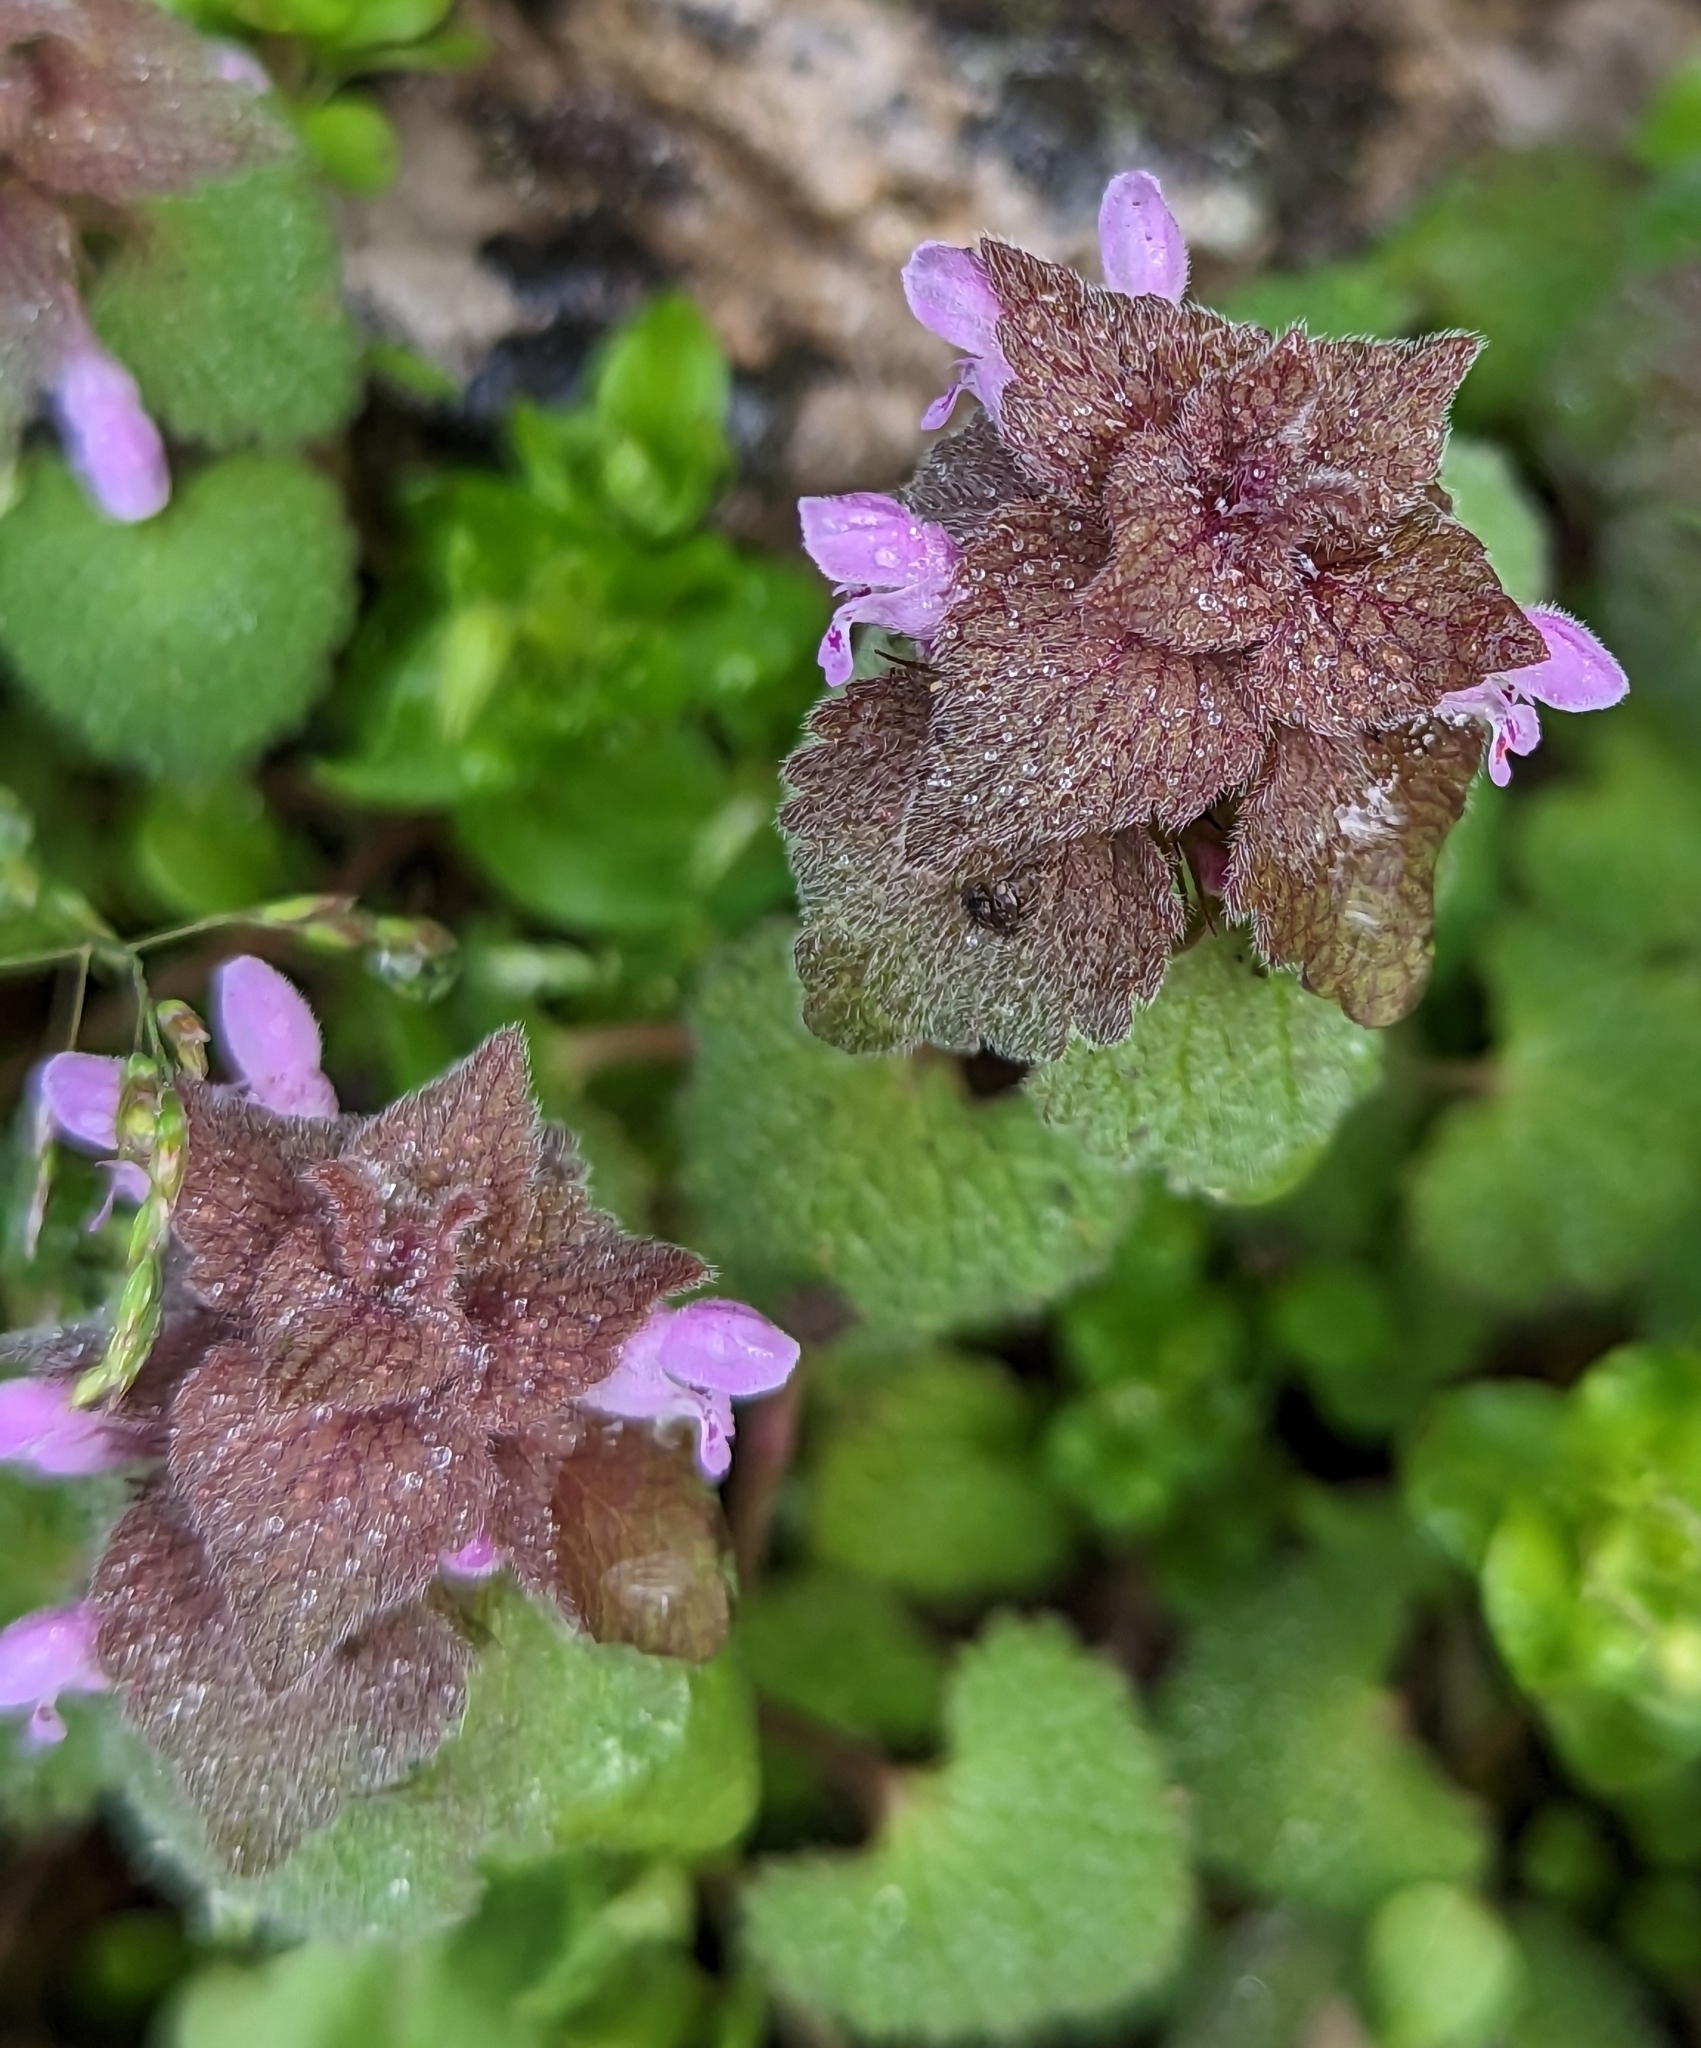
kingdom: Plantae
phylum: Tracheophyta
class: Magnoliopsida
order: Lamiales
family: Lamiaceae
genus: Lamium
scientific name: Lamium purpureum
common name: Red dead-nettle
